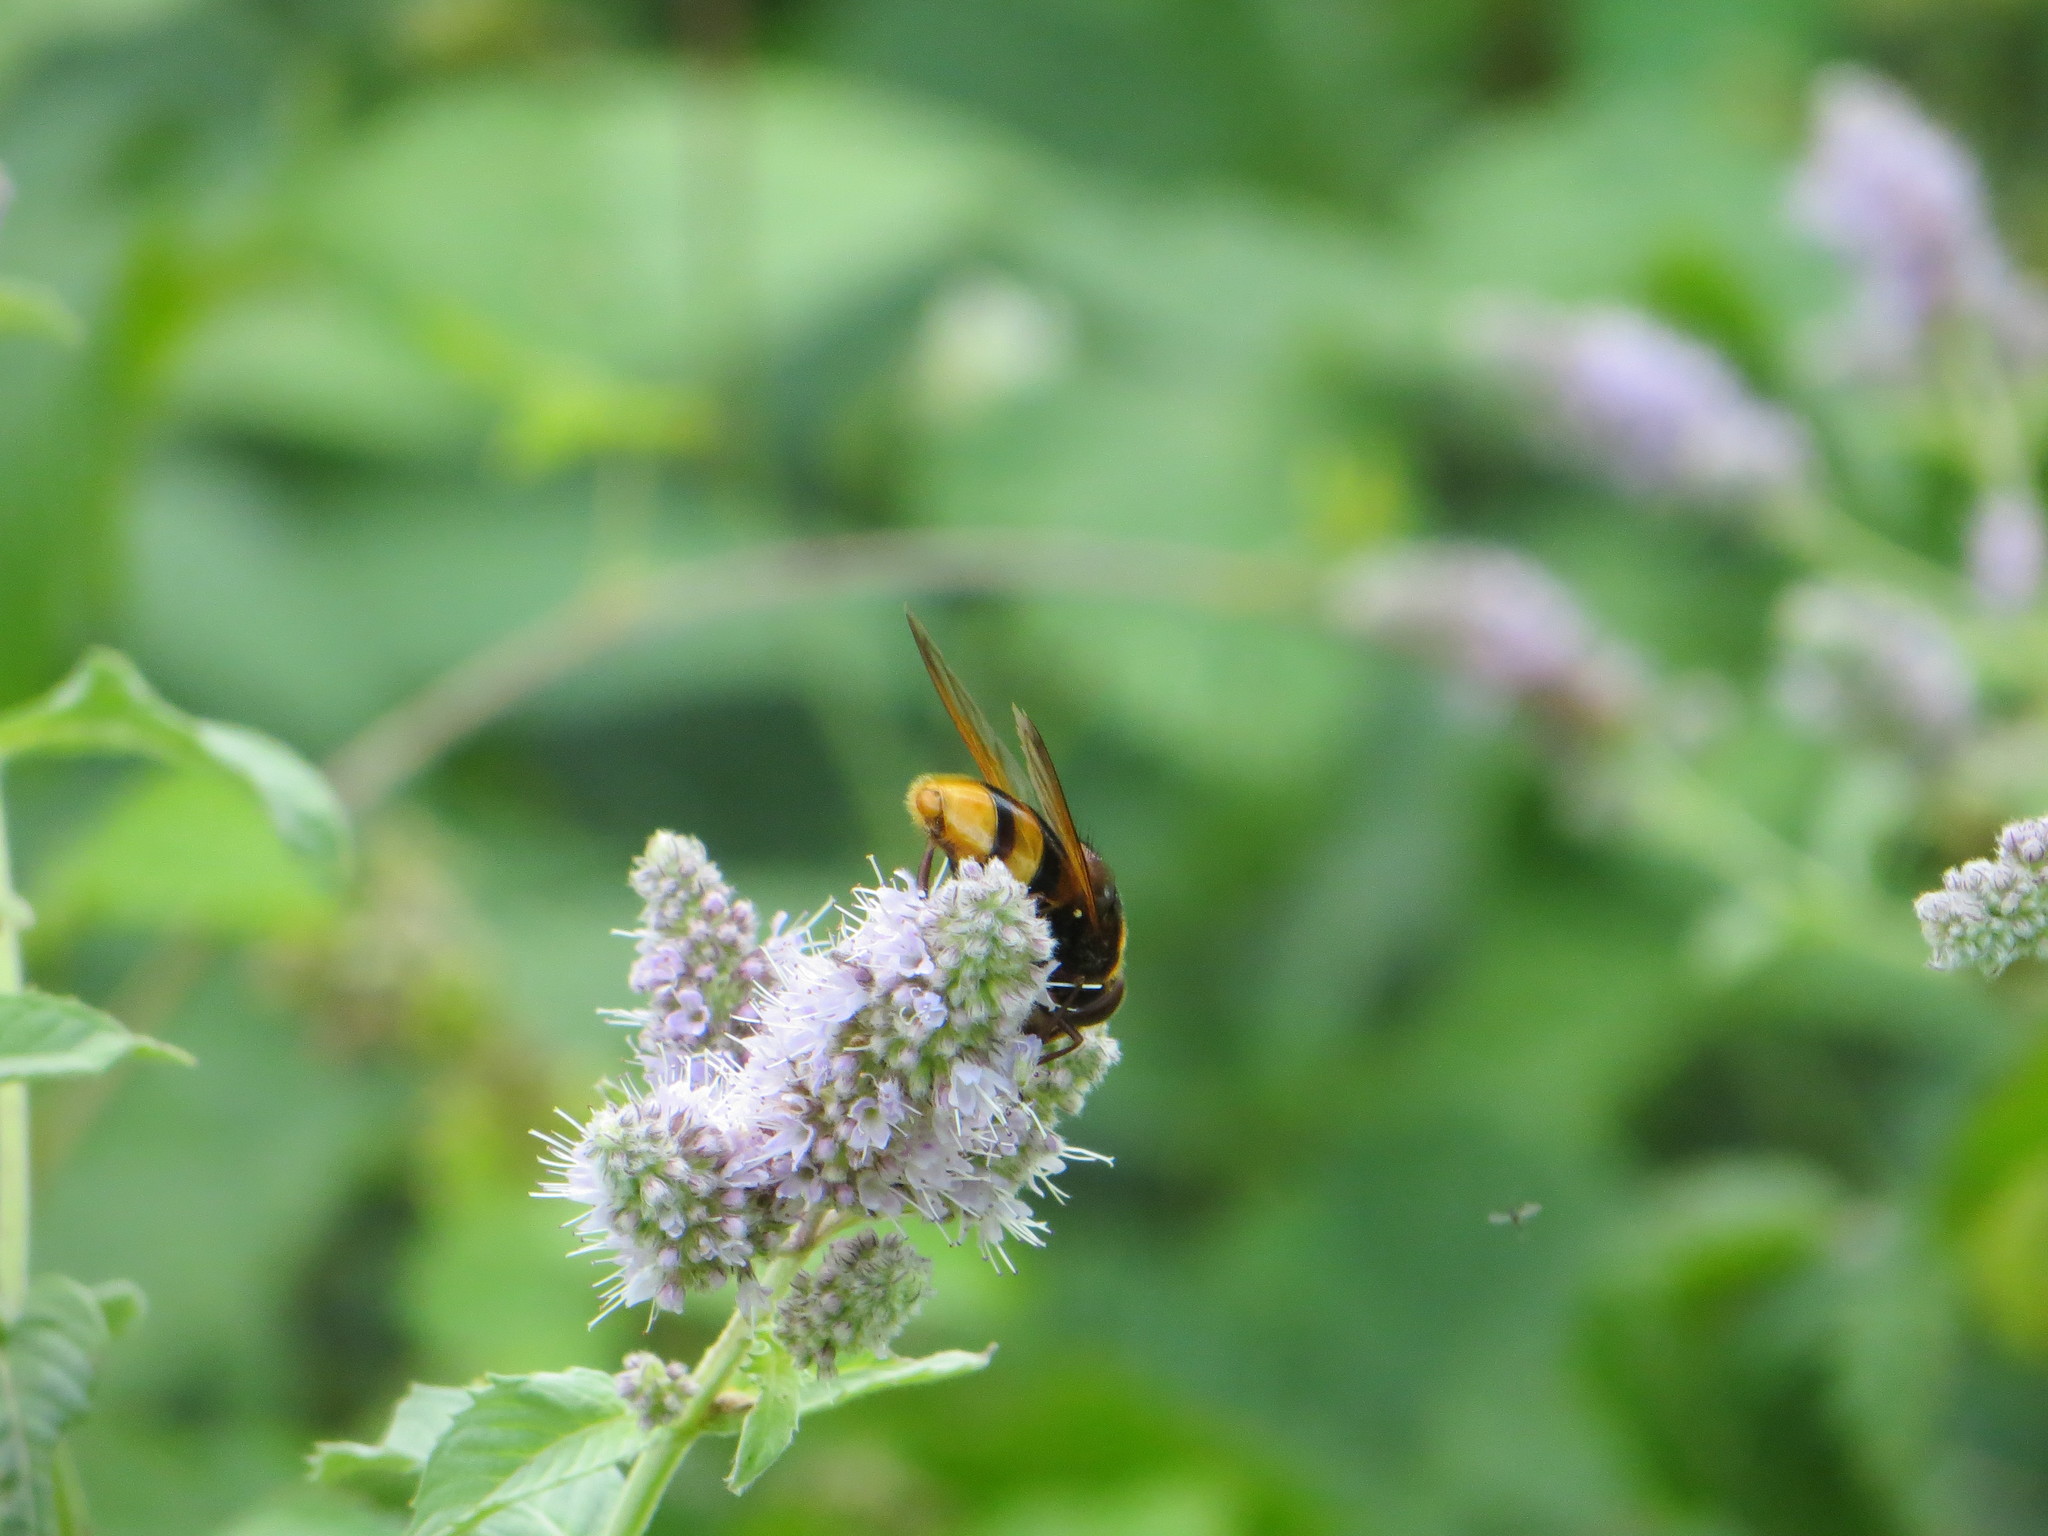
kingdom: Animalia
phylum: Arthropoda
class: Insecta
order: Diptera
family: Syrphidae
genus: Volucella
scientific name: Volucella zonaria
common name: Hornet hoverfly
